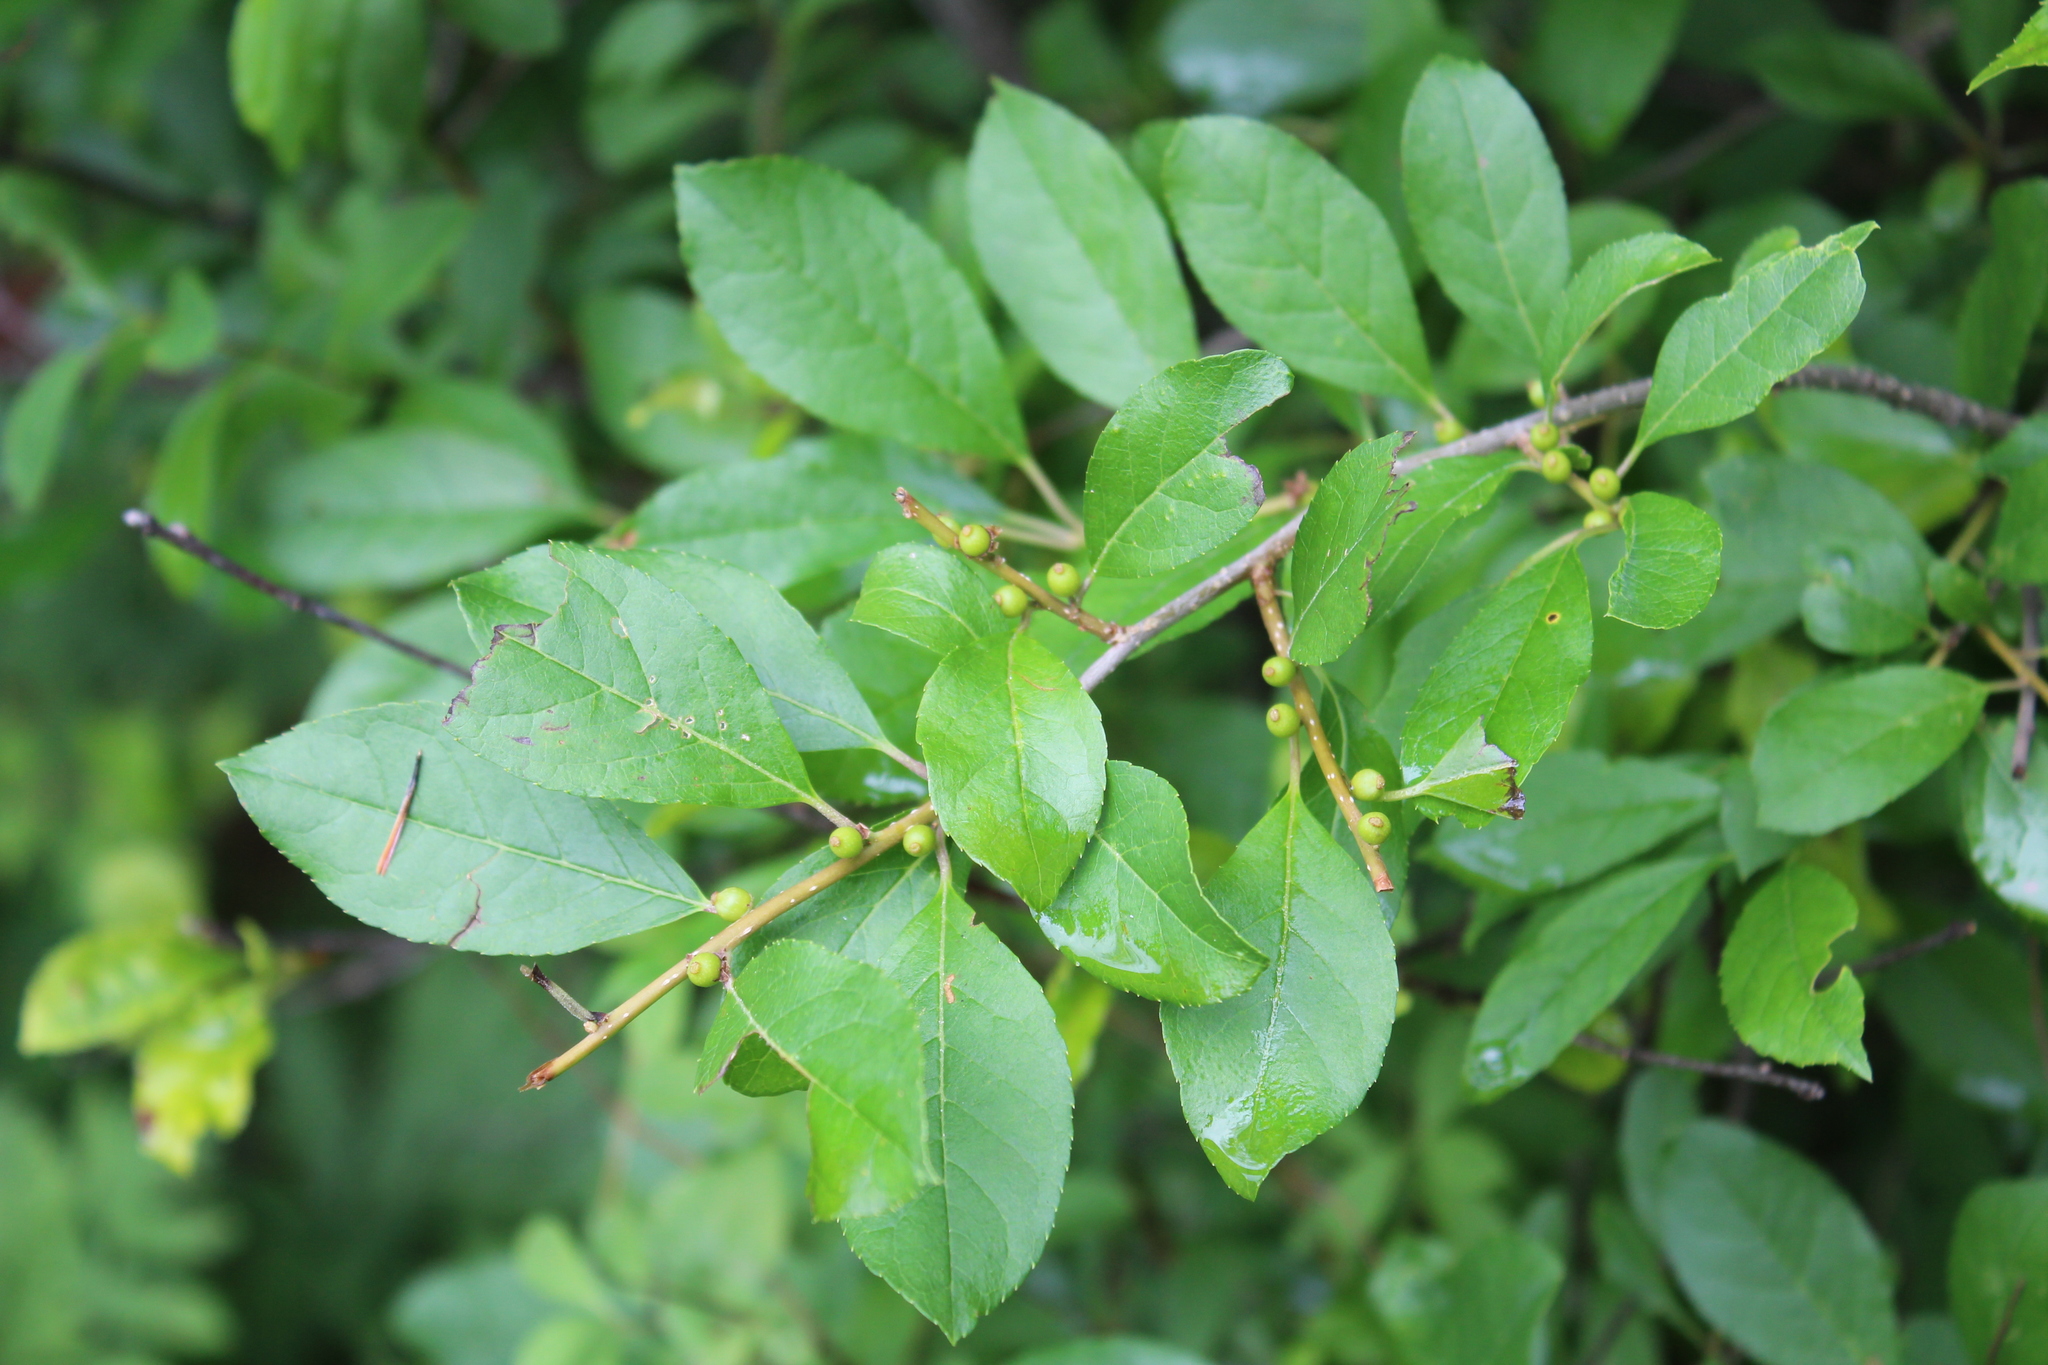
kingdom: Plantae
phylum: Tracheophyta
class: Magnoliopsida
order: Aquifoliales
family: Aquifoliaceae
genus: Ilex
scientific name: Ilex verticillata
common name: Virginia winterberry
